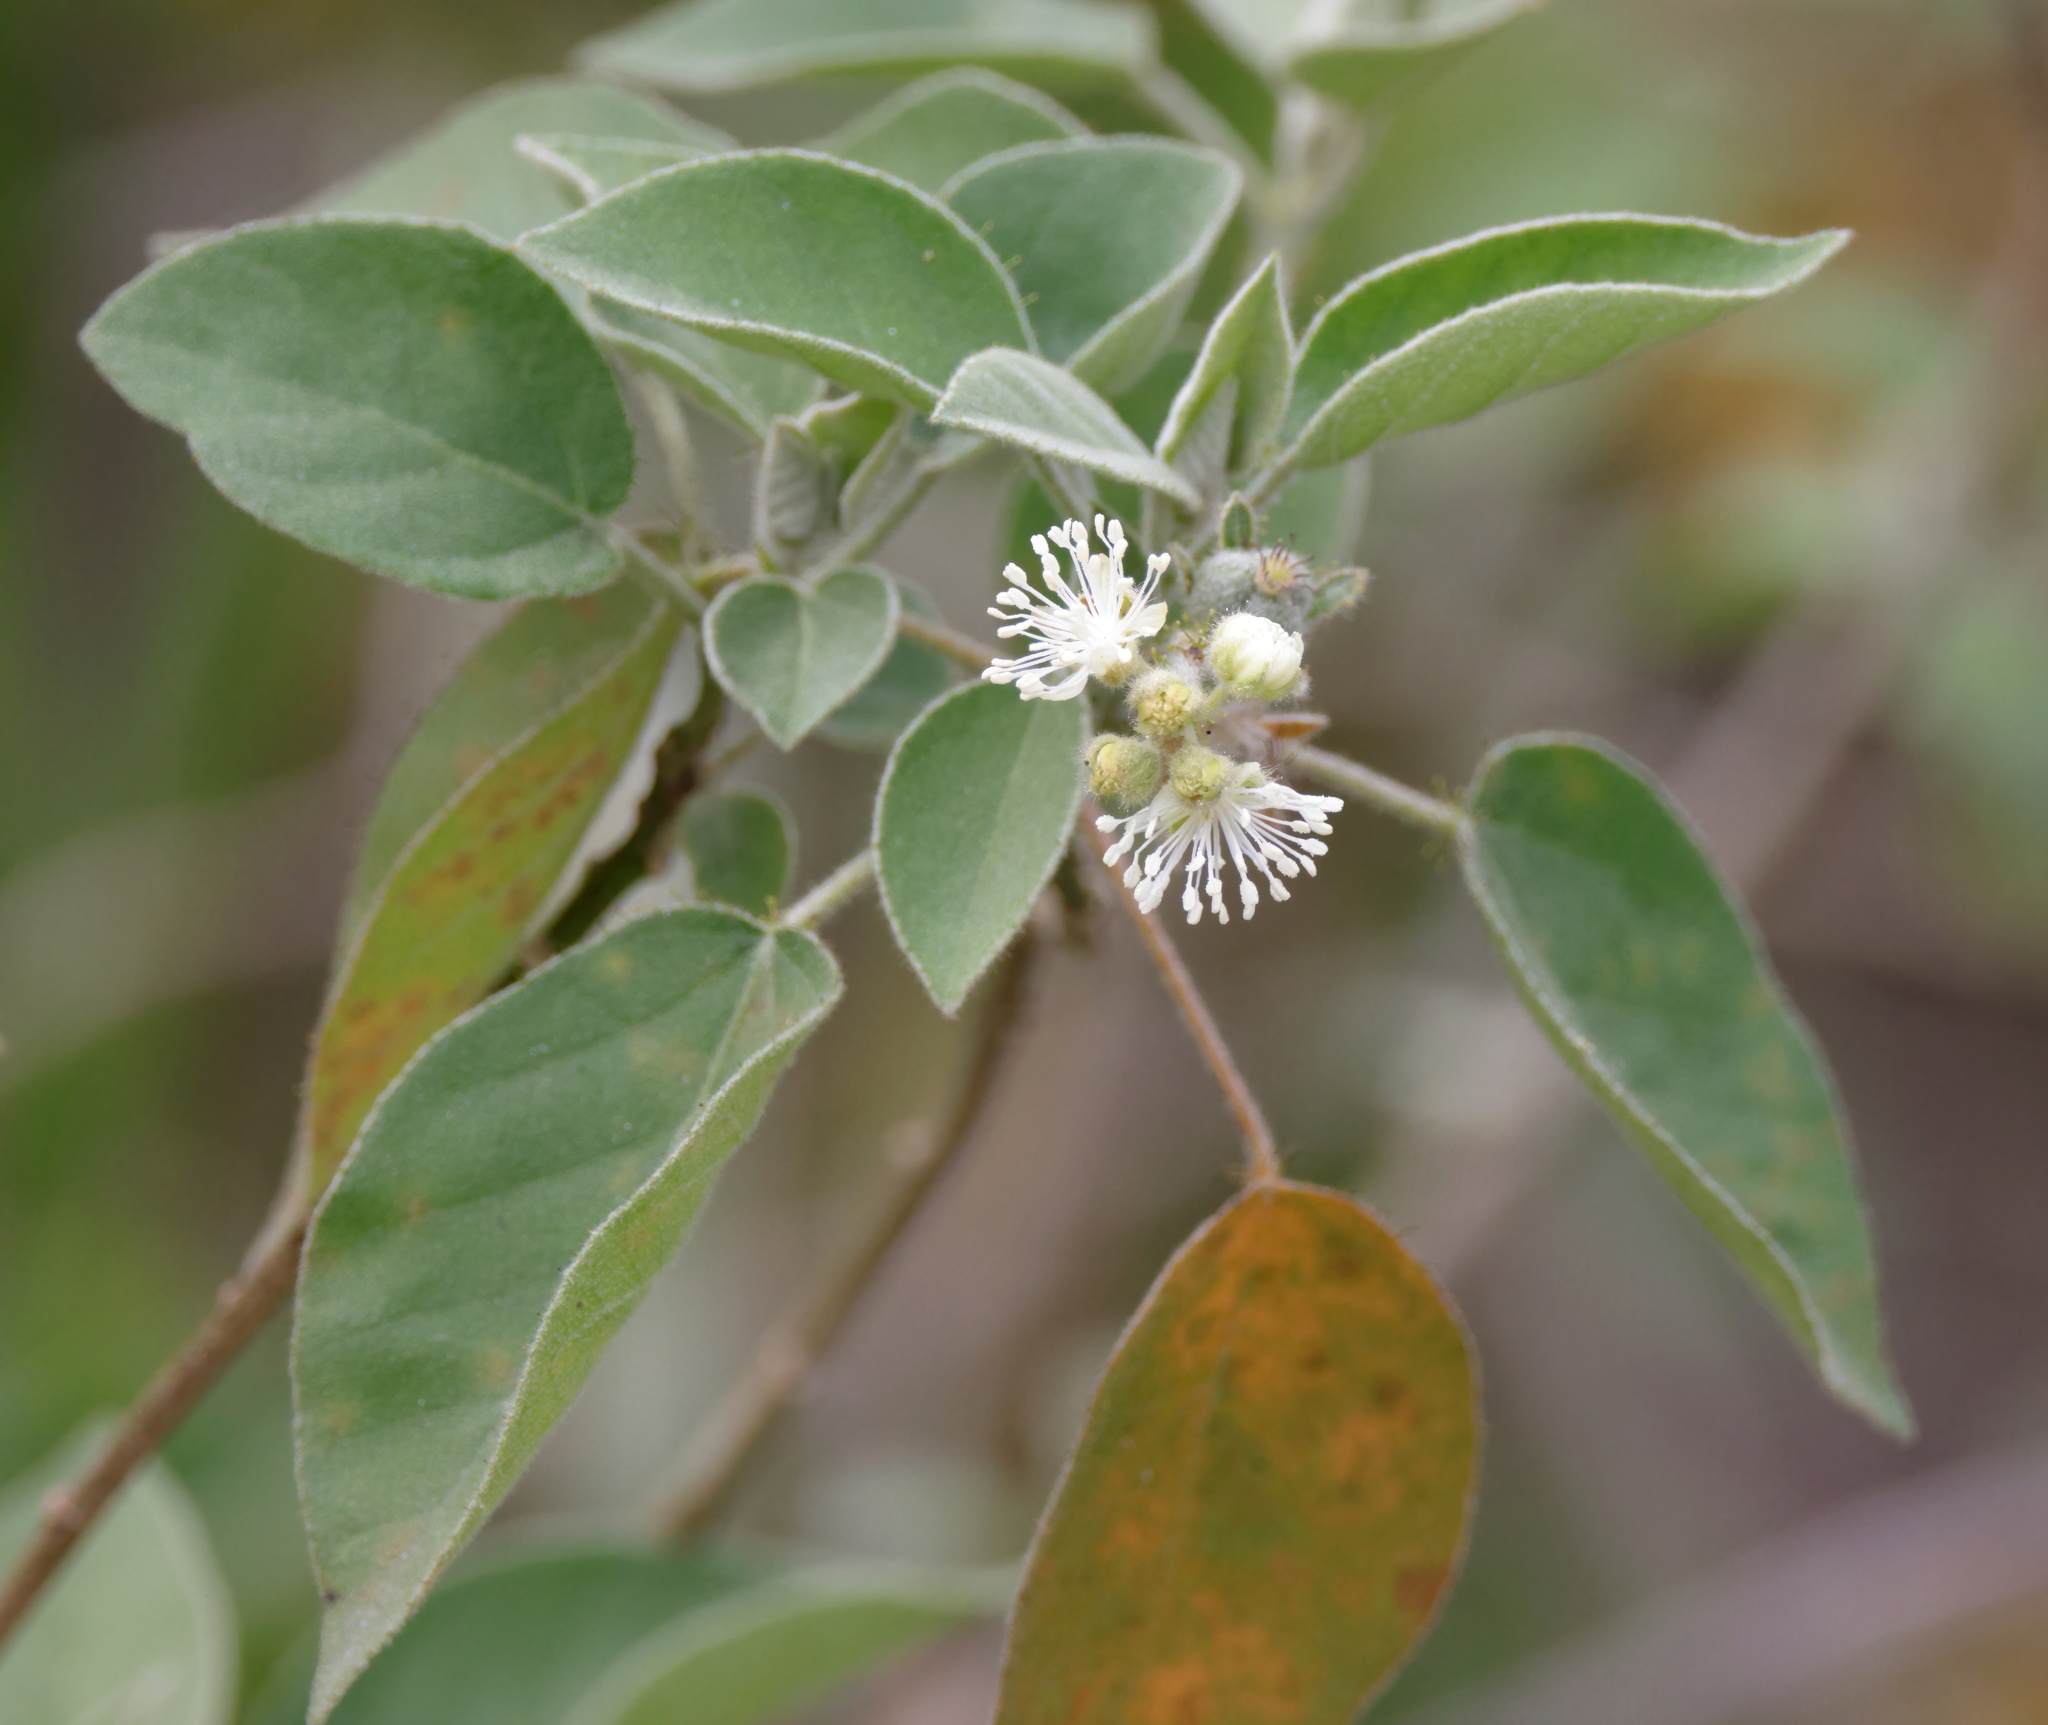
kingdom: Plantae
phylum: Tracheophyta
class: Magnoliopsida
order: Malpighiales
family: Euphorbiaceae
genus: Croton
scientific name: Croton ciliatoglandulifer
